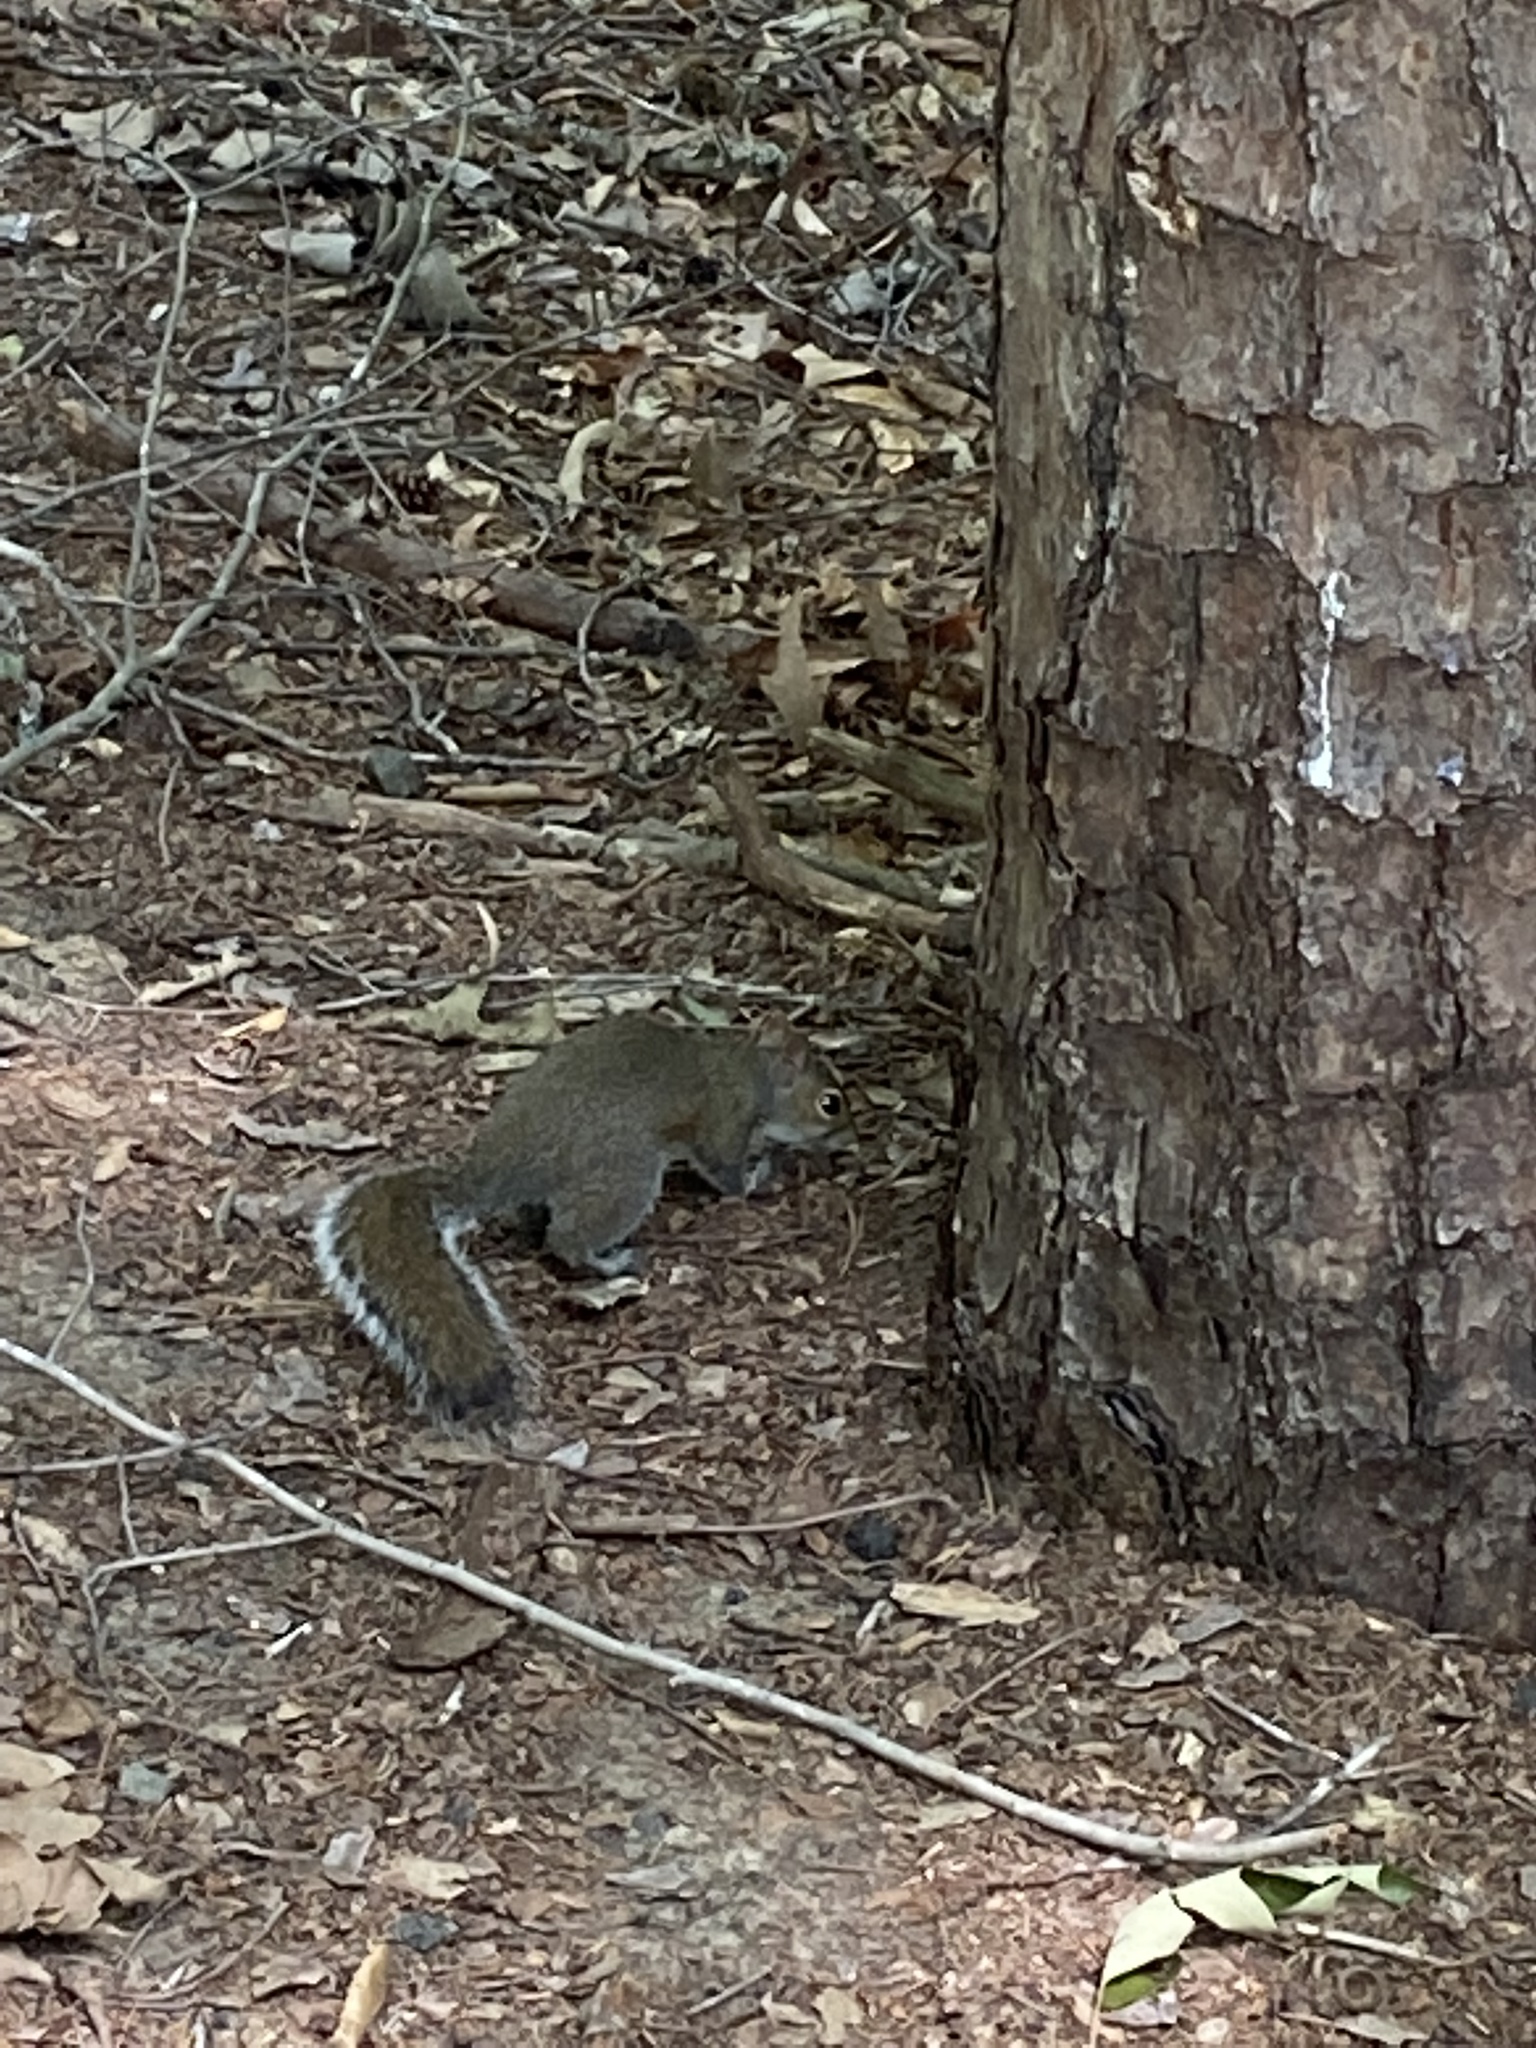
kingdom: Animalia
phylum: Chordata
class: Mammalia
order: Rodentia
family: Sciuridae
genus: Sciurus
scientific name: Sciurus carolinensis
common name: Eastern gray squirrel
